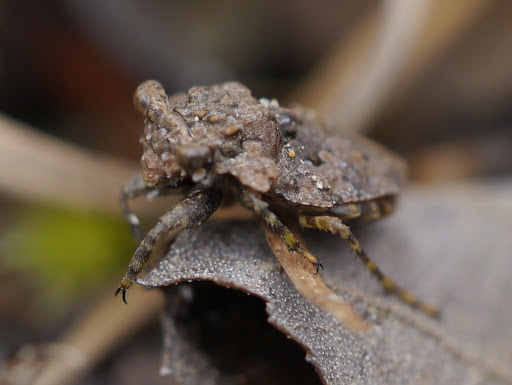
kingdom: Animalia
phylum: Arthropoda
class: Insecta
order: Hemiptera
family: Gelastocoridae
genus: Gelastocoris
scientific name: Gelastocoris oculatus
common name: Toad bug
